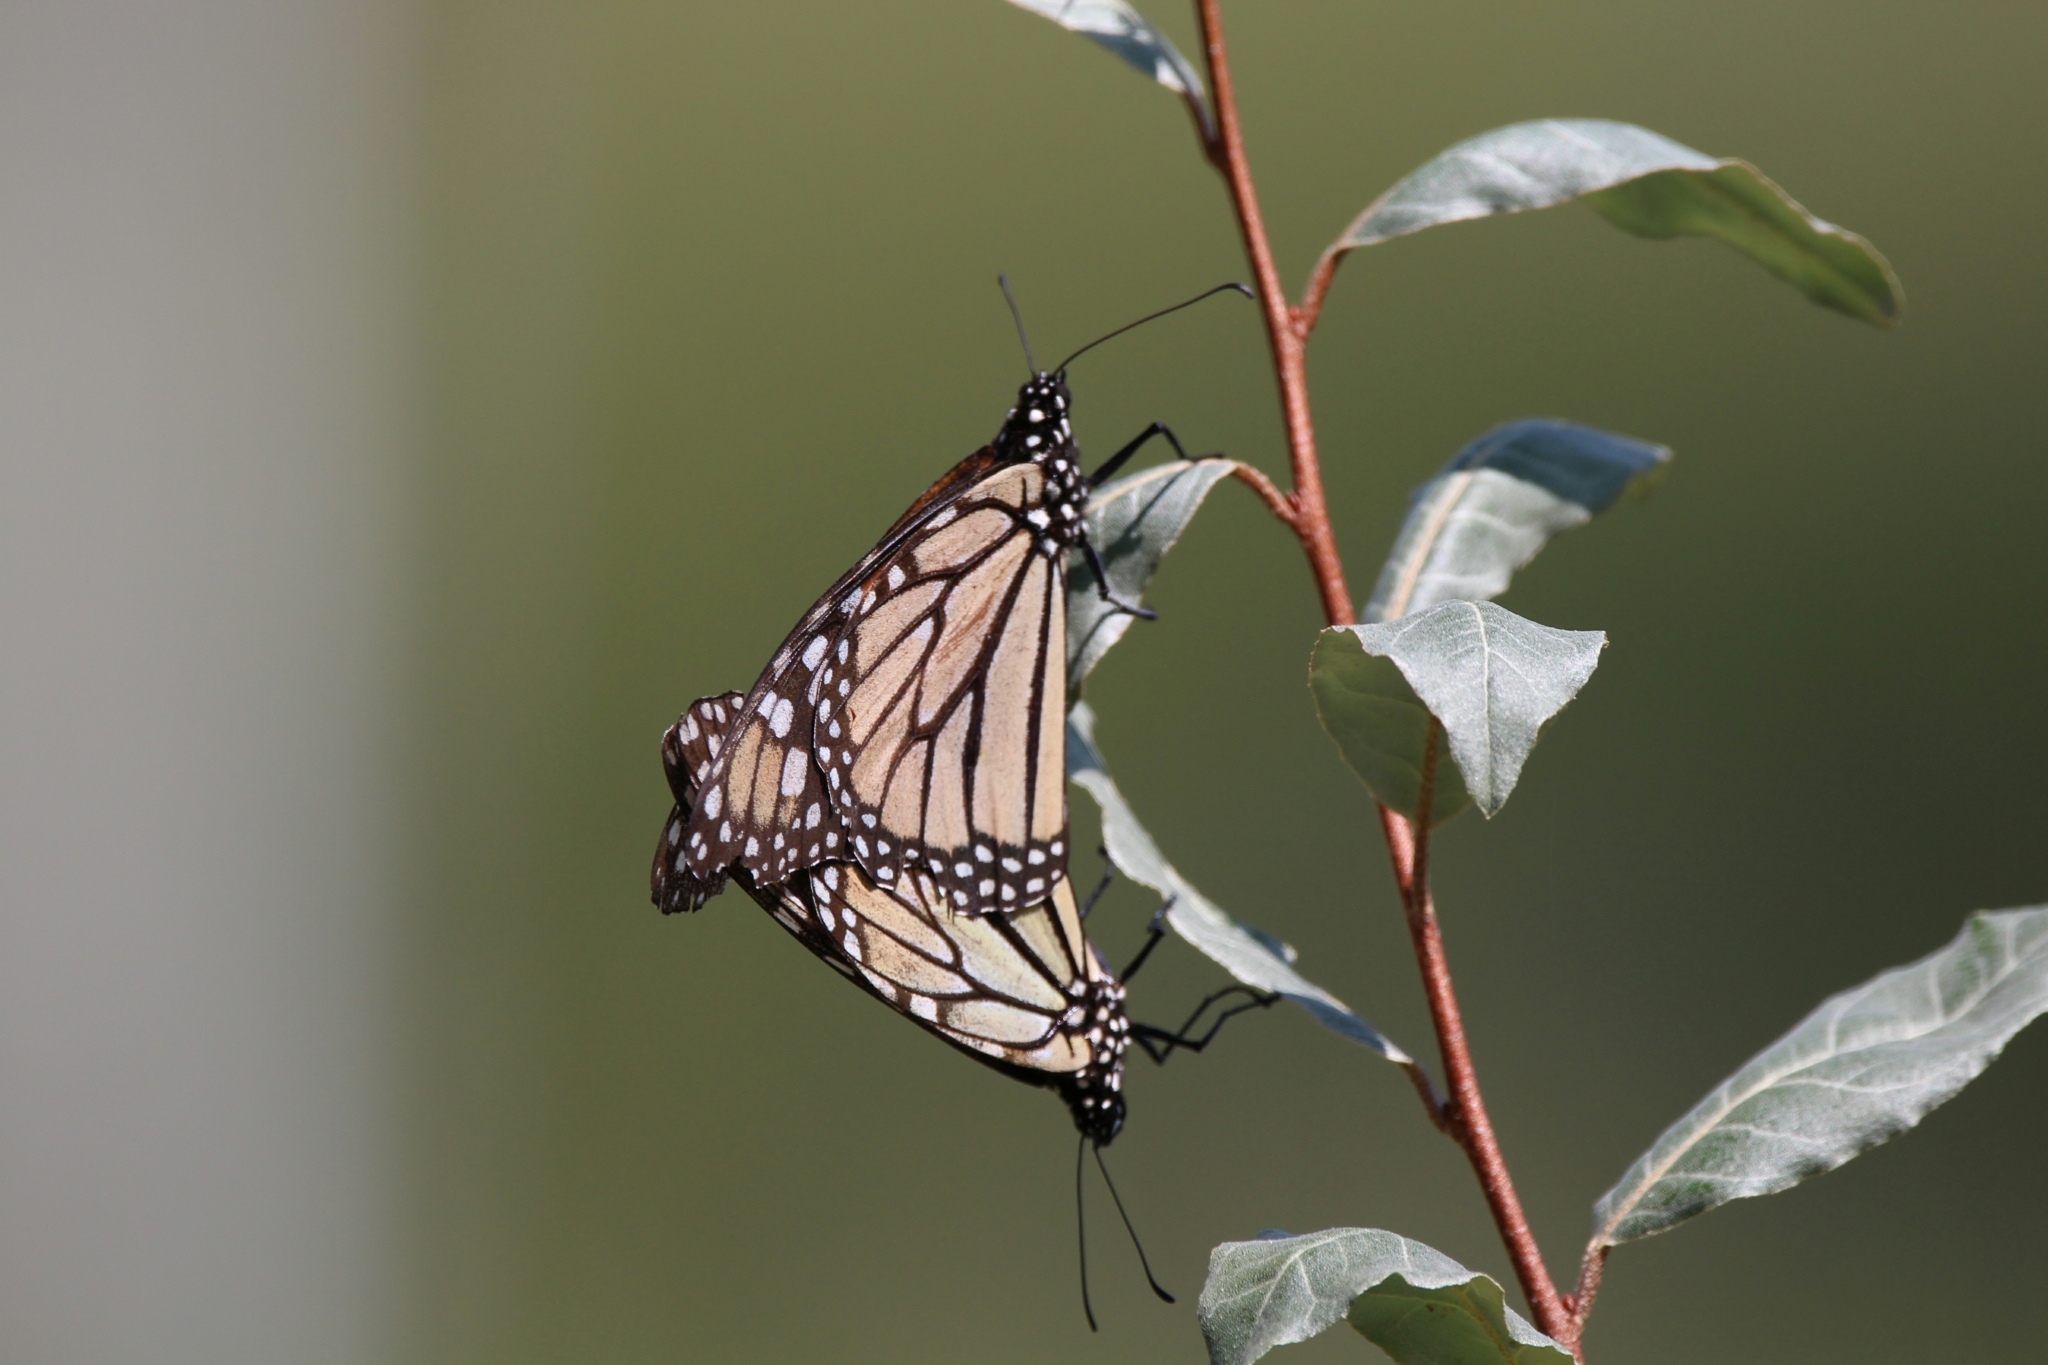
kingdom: Animalia
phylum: Arthropoda
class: Insecta
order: Lepidoptera
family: Nymphalidae
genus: Danaus
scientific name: Danaus plexippus
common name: Monarch
